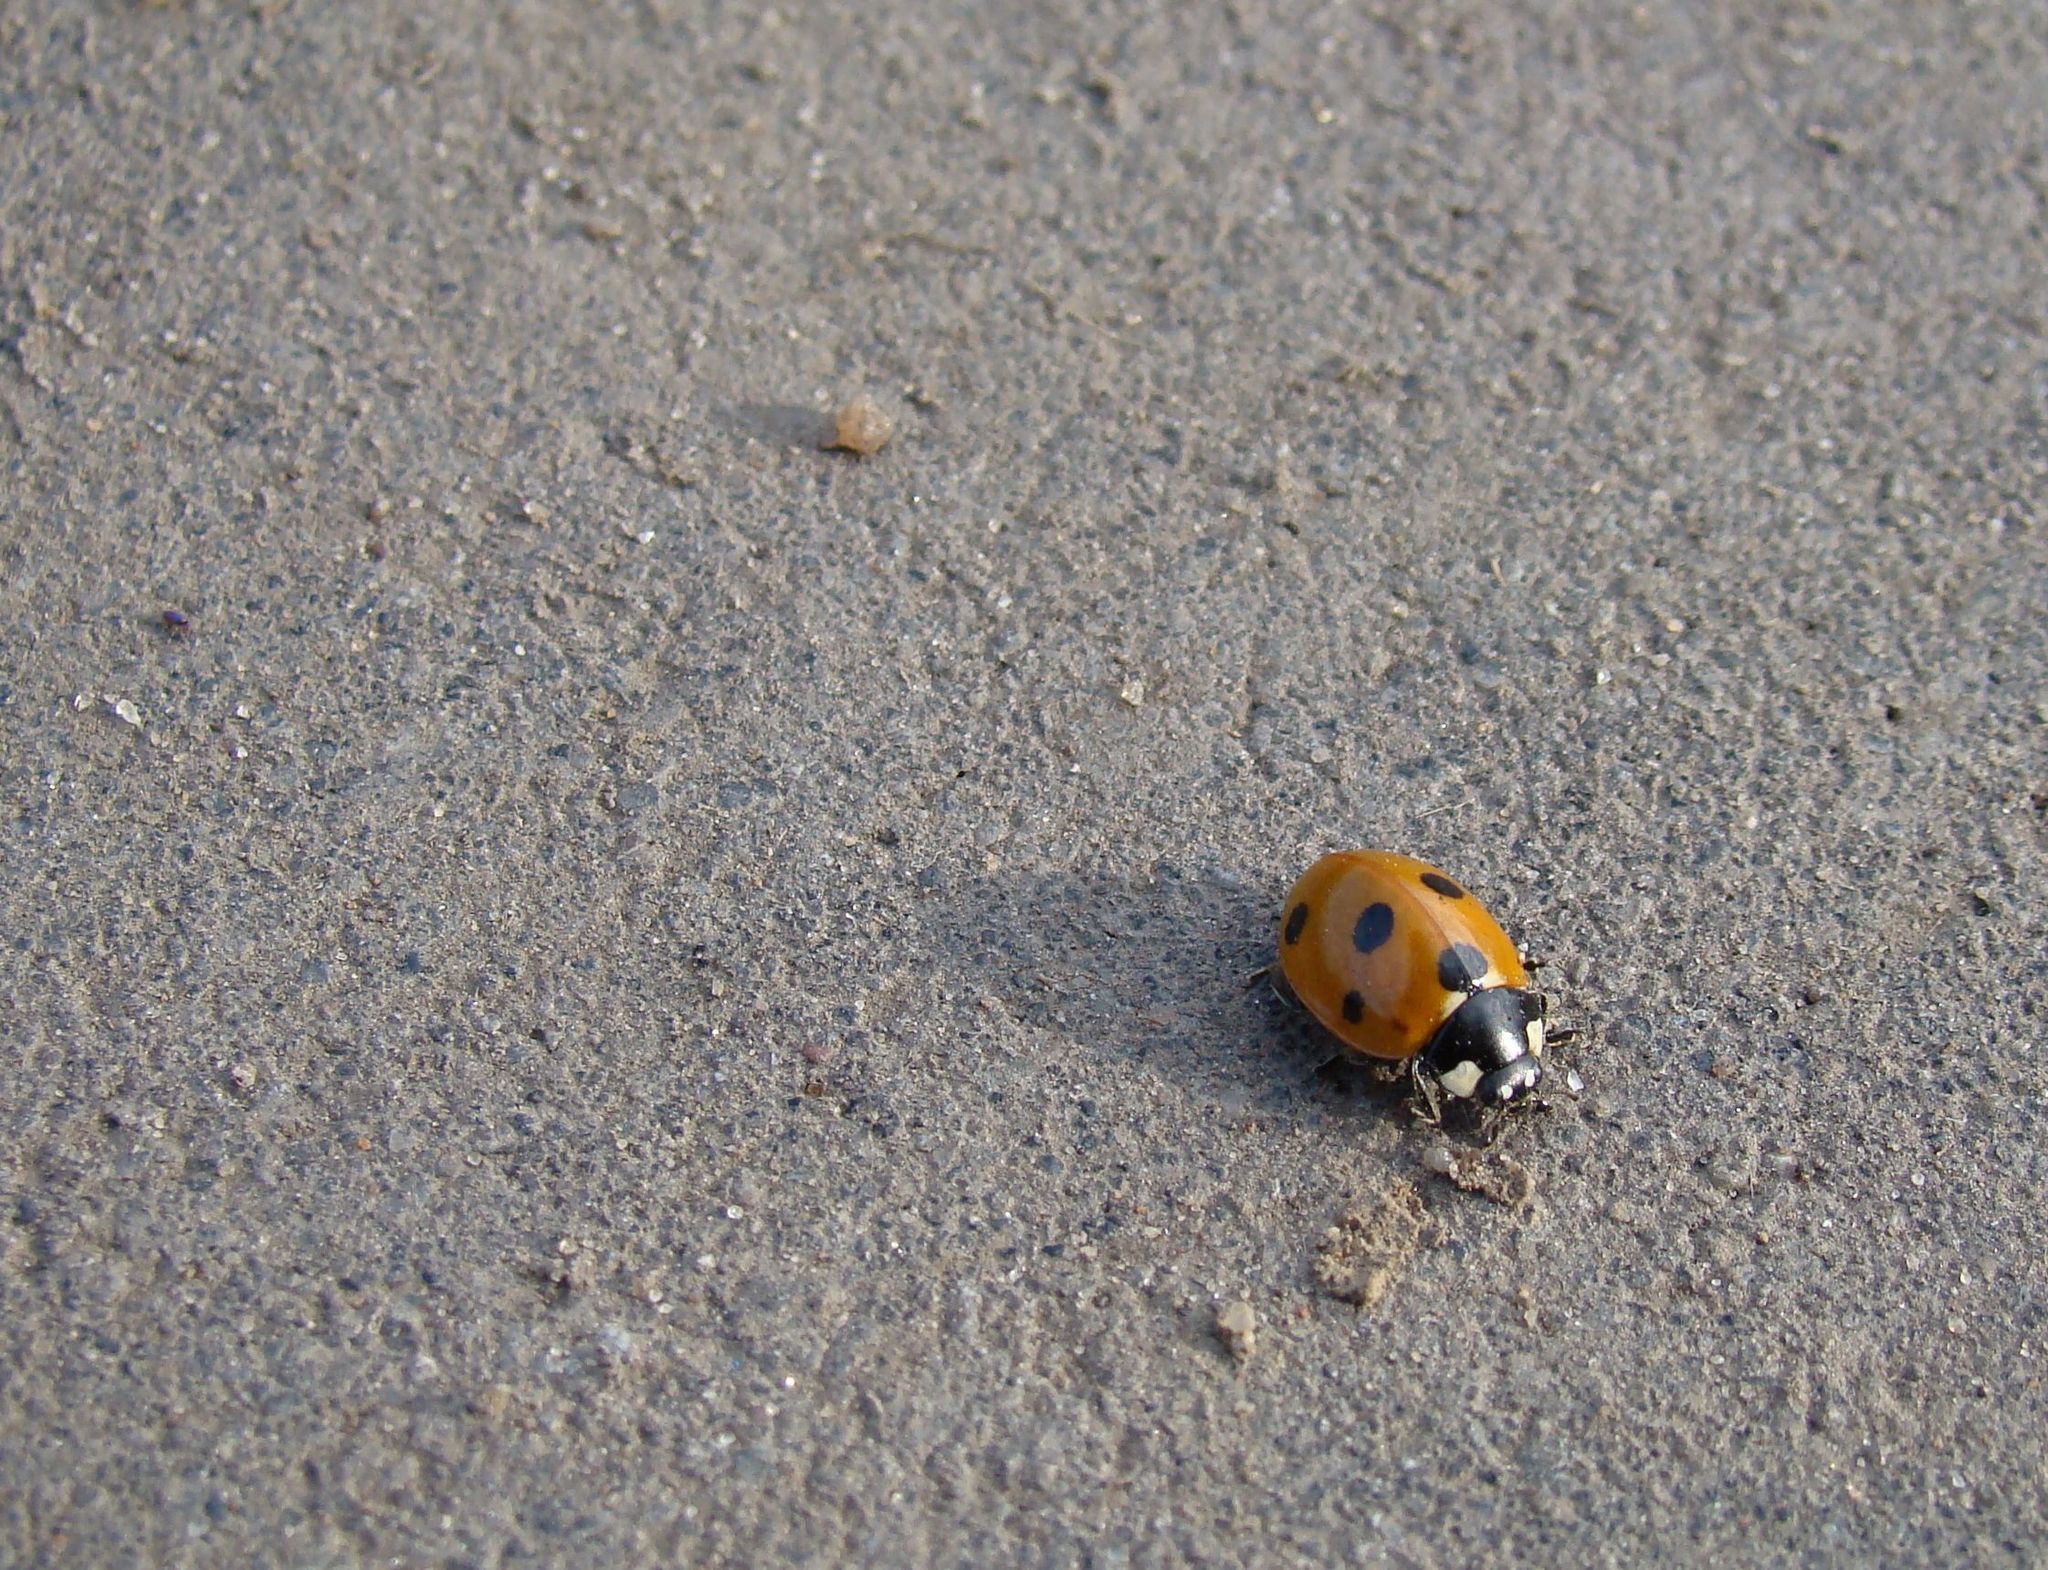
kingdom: Animalia
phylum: Arthropoda
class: Insecta
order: Coleoptera
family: Coccinellidae
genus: Coccinella
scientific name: Coccinella septempunctata
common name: Sevenspotted lady beetle
